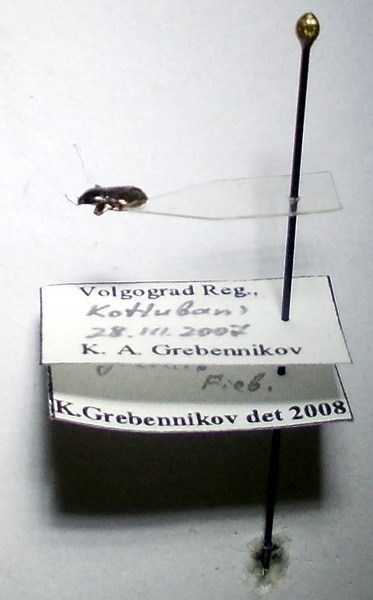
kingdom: Animalia
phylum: Arthropoda
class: Insecta
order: Hemiptera
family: Rhyparochromidae
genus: Plinthisus
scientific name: Plinthisus longicollis
